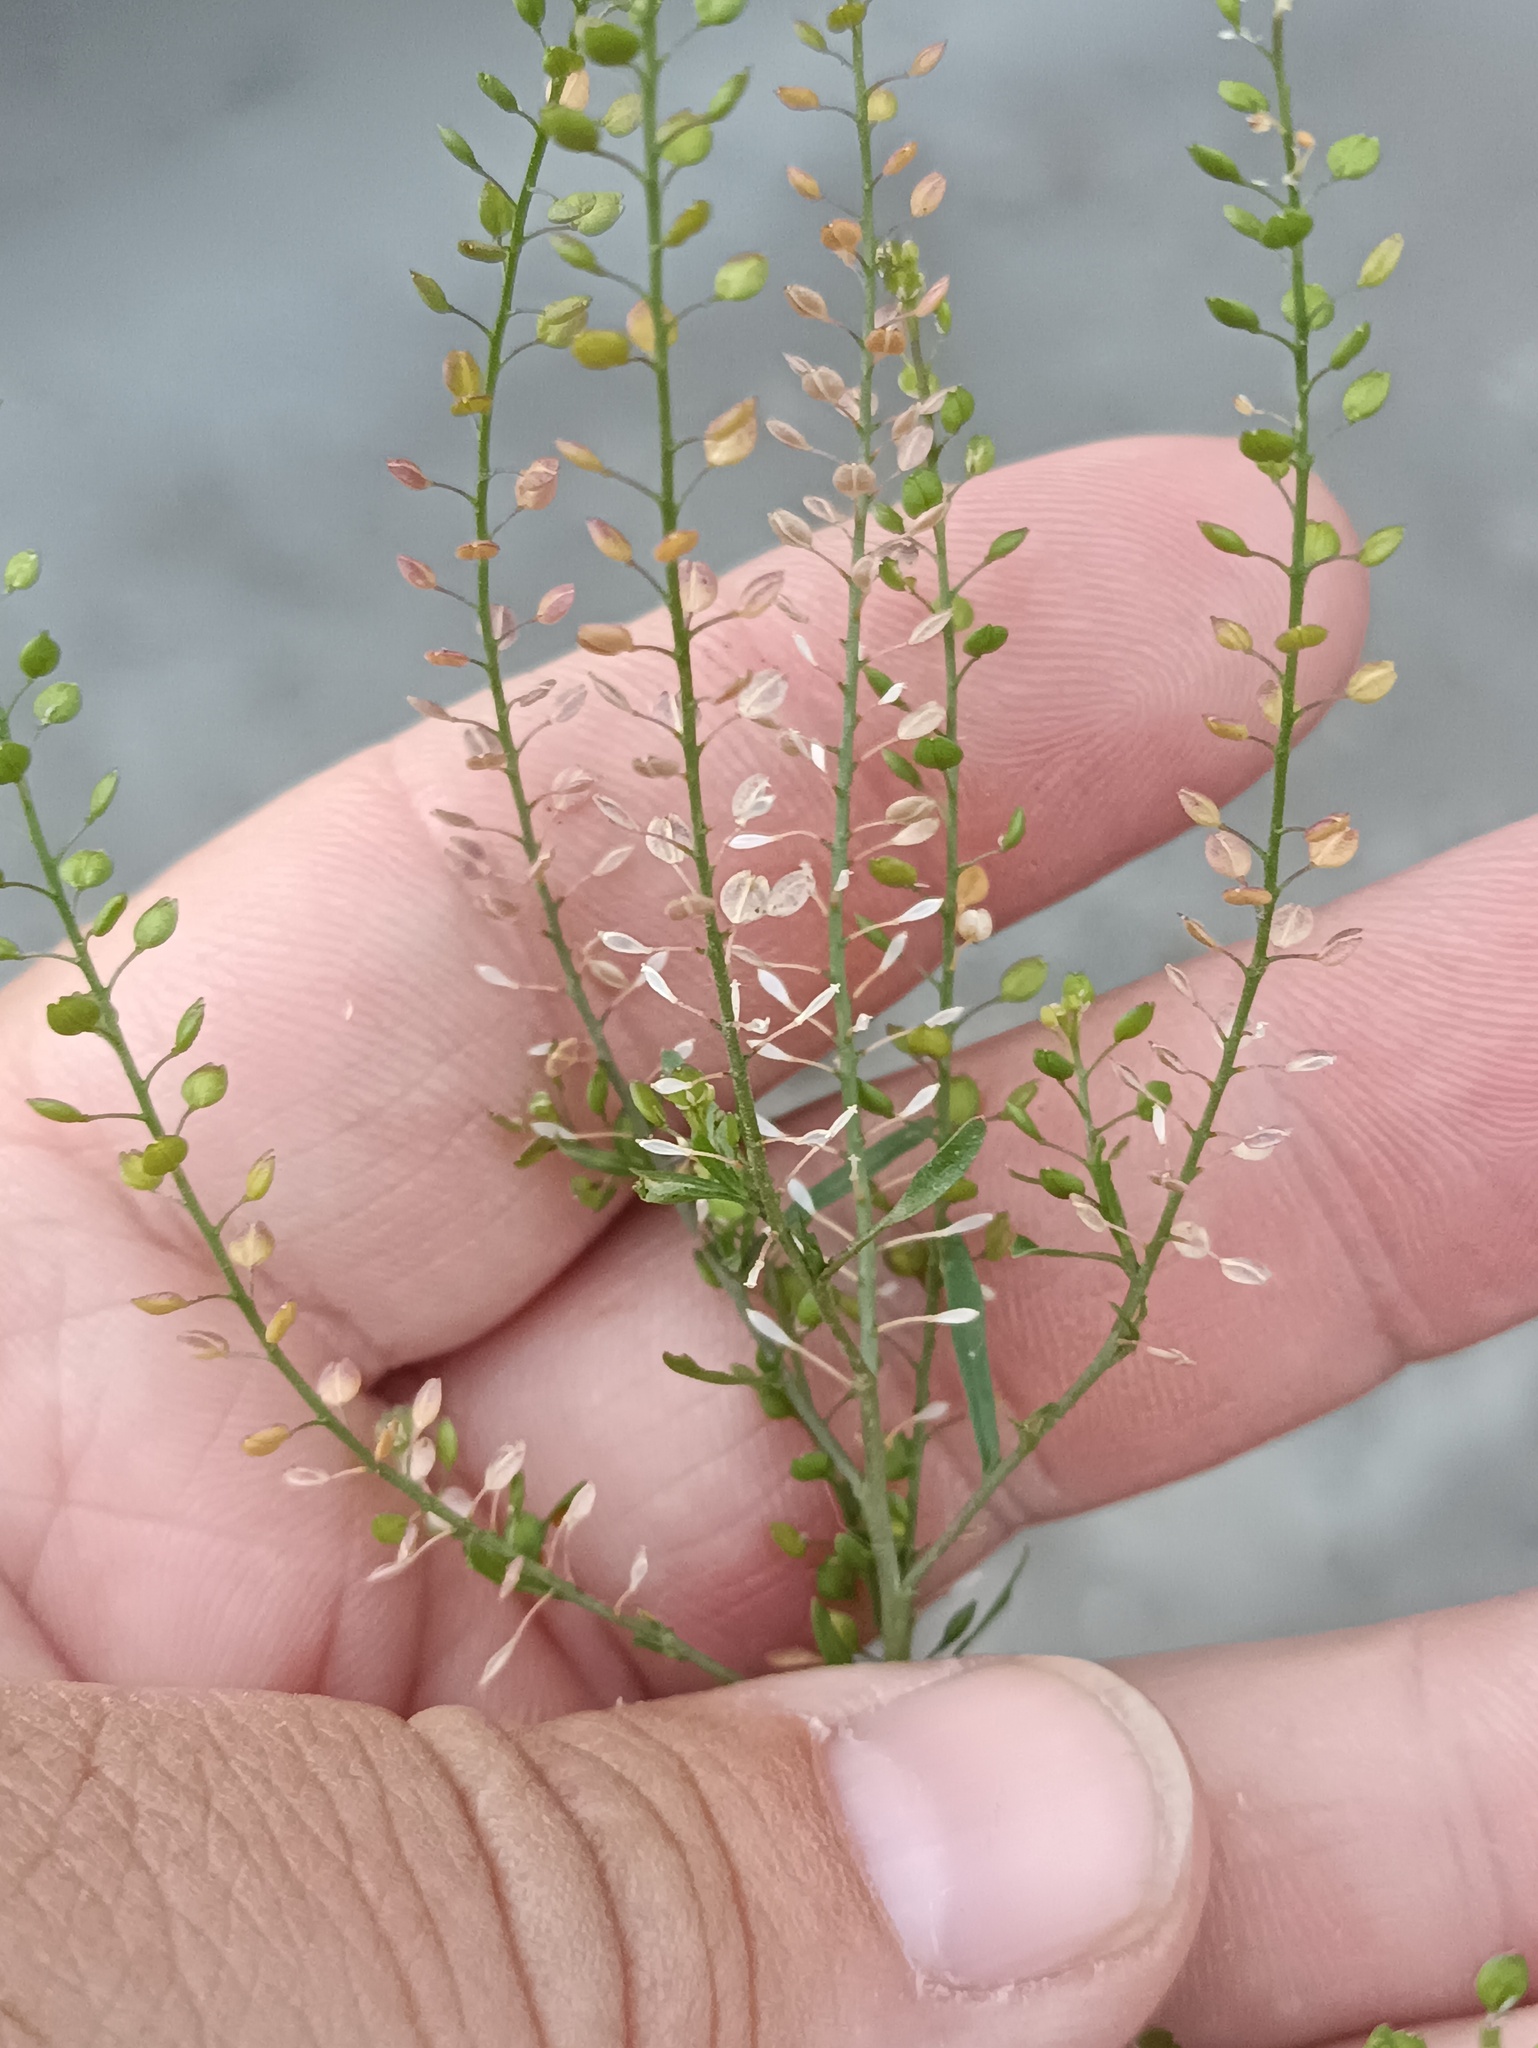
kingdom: Plantae
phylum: Tracheophyta
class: Magnoliopsida
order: Brassicales
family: Brassicaceae
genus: Lepidium
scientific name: Lepidium ruderale
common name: Narrow-leaved pepperwort
